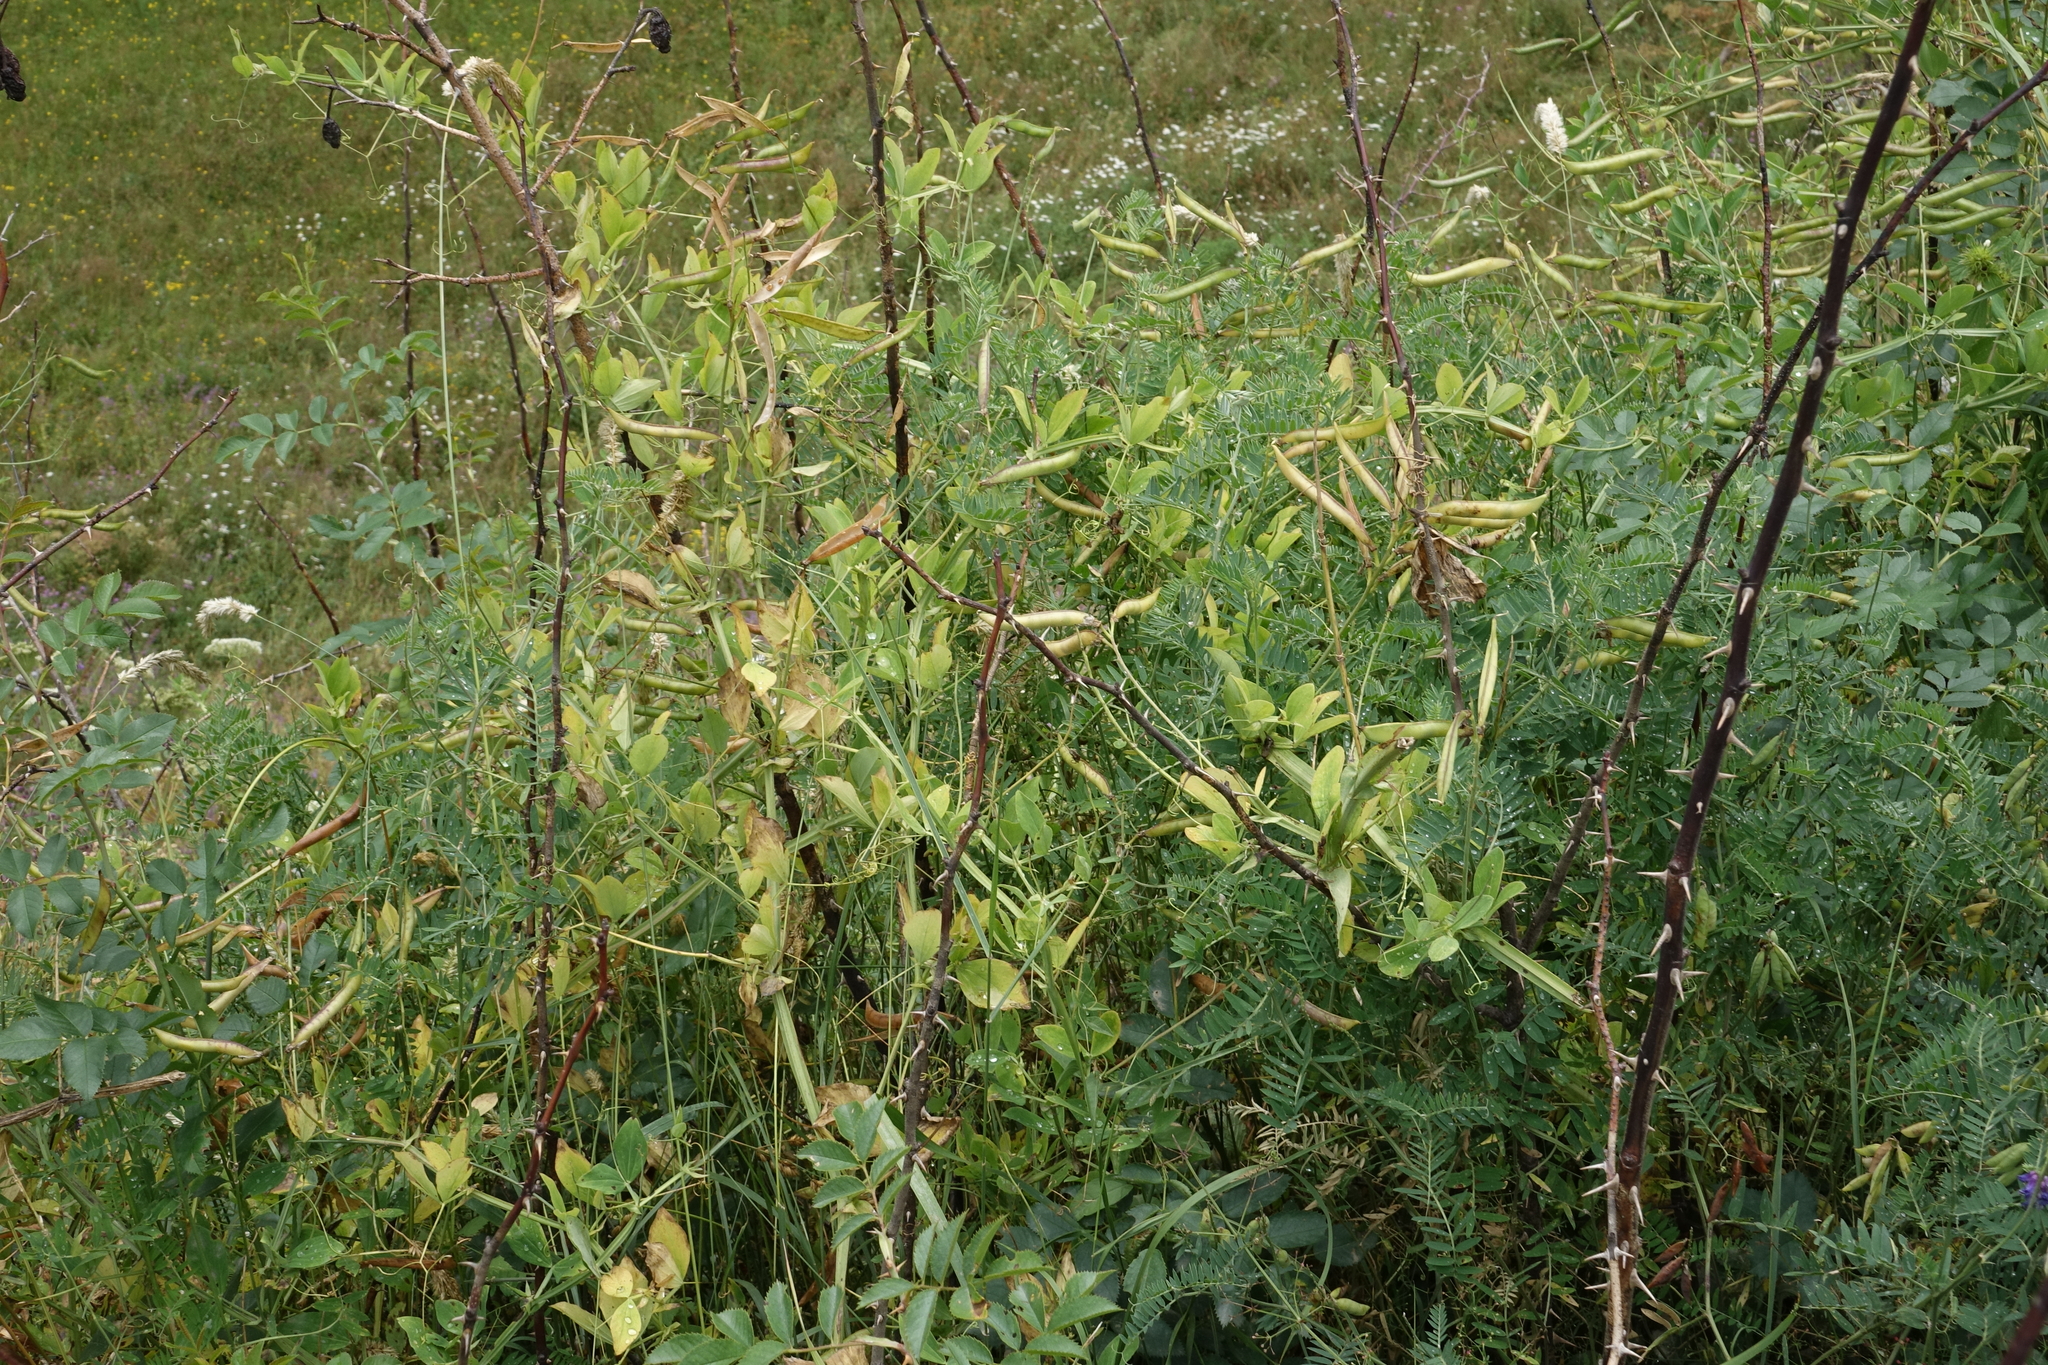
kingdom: Plantae
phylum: Tracheophyta
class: Magnoliopsida
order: Fabales
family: Fabaceae
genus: Lathyrus
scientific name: Lathyrus miniatus
